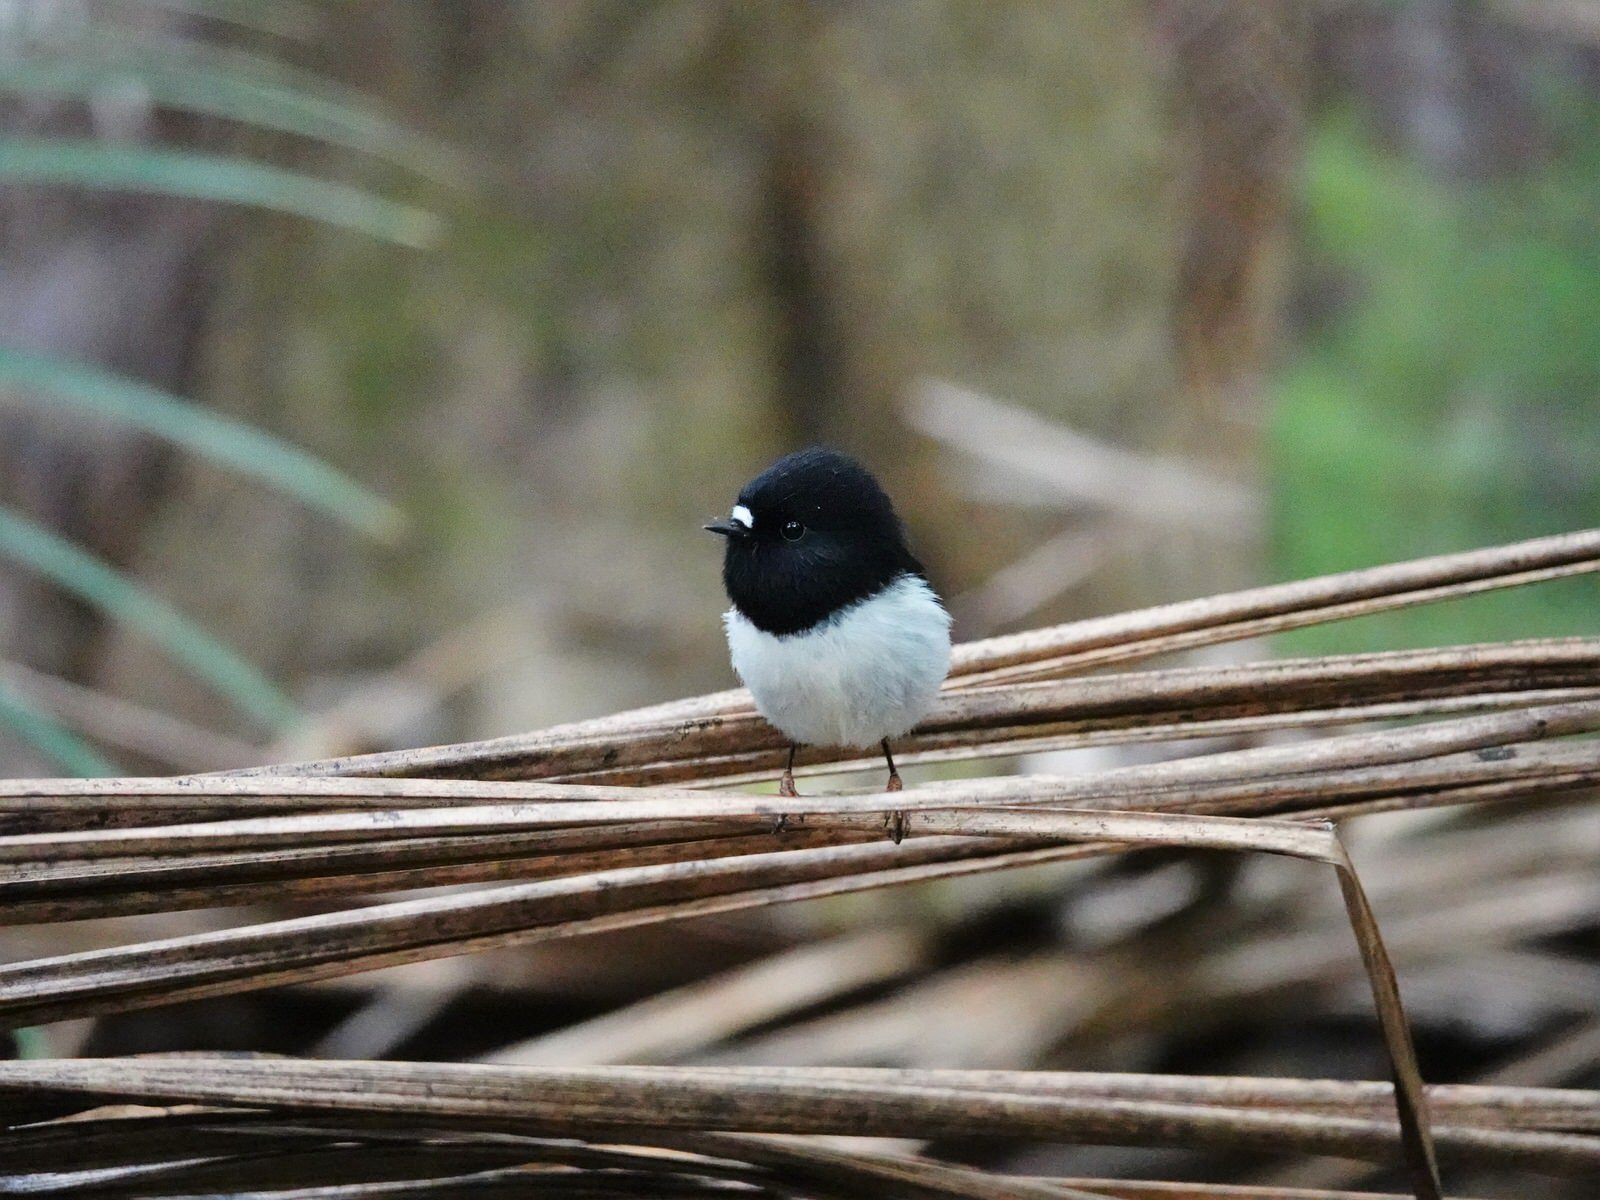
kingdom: Animalia
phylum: Chordata
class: Aves
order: Passeriformes
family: Petroicidae
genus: Petroica
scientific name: Petroica macrocephala
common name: Tomtit
